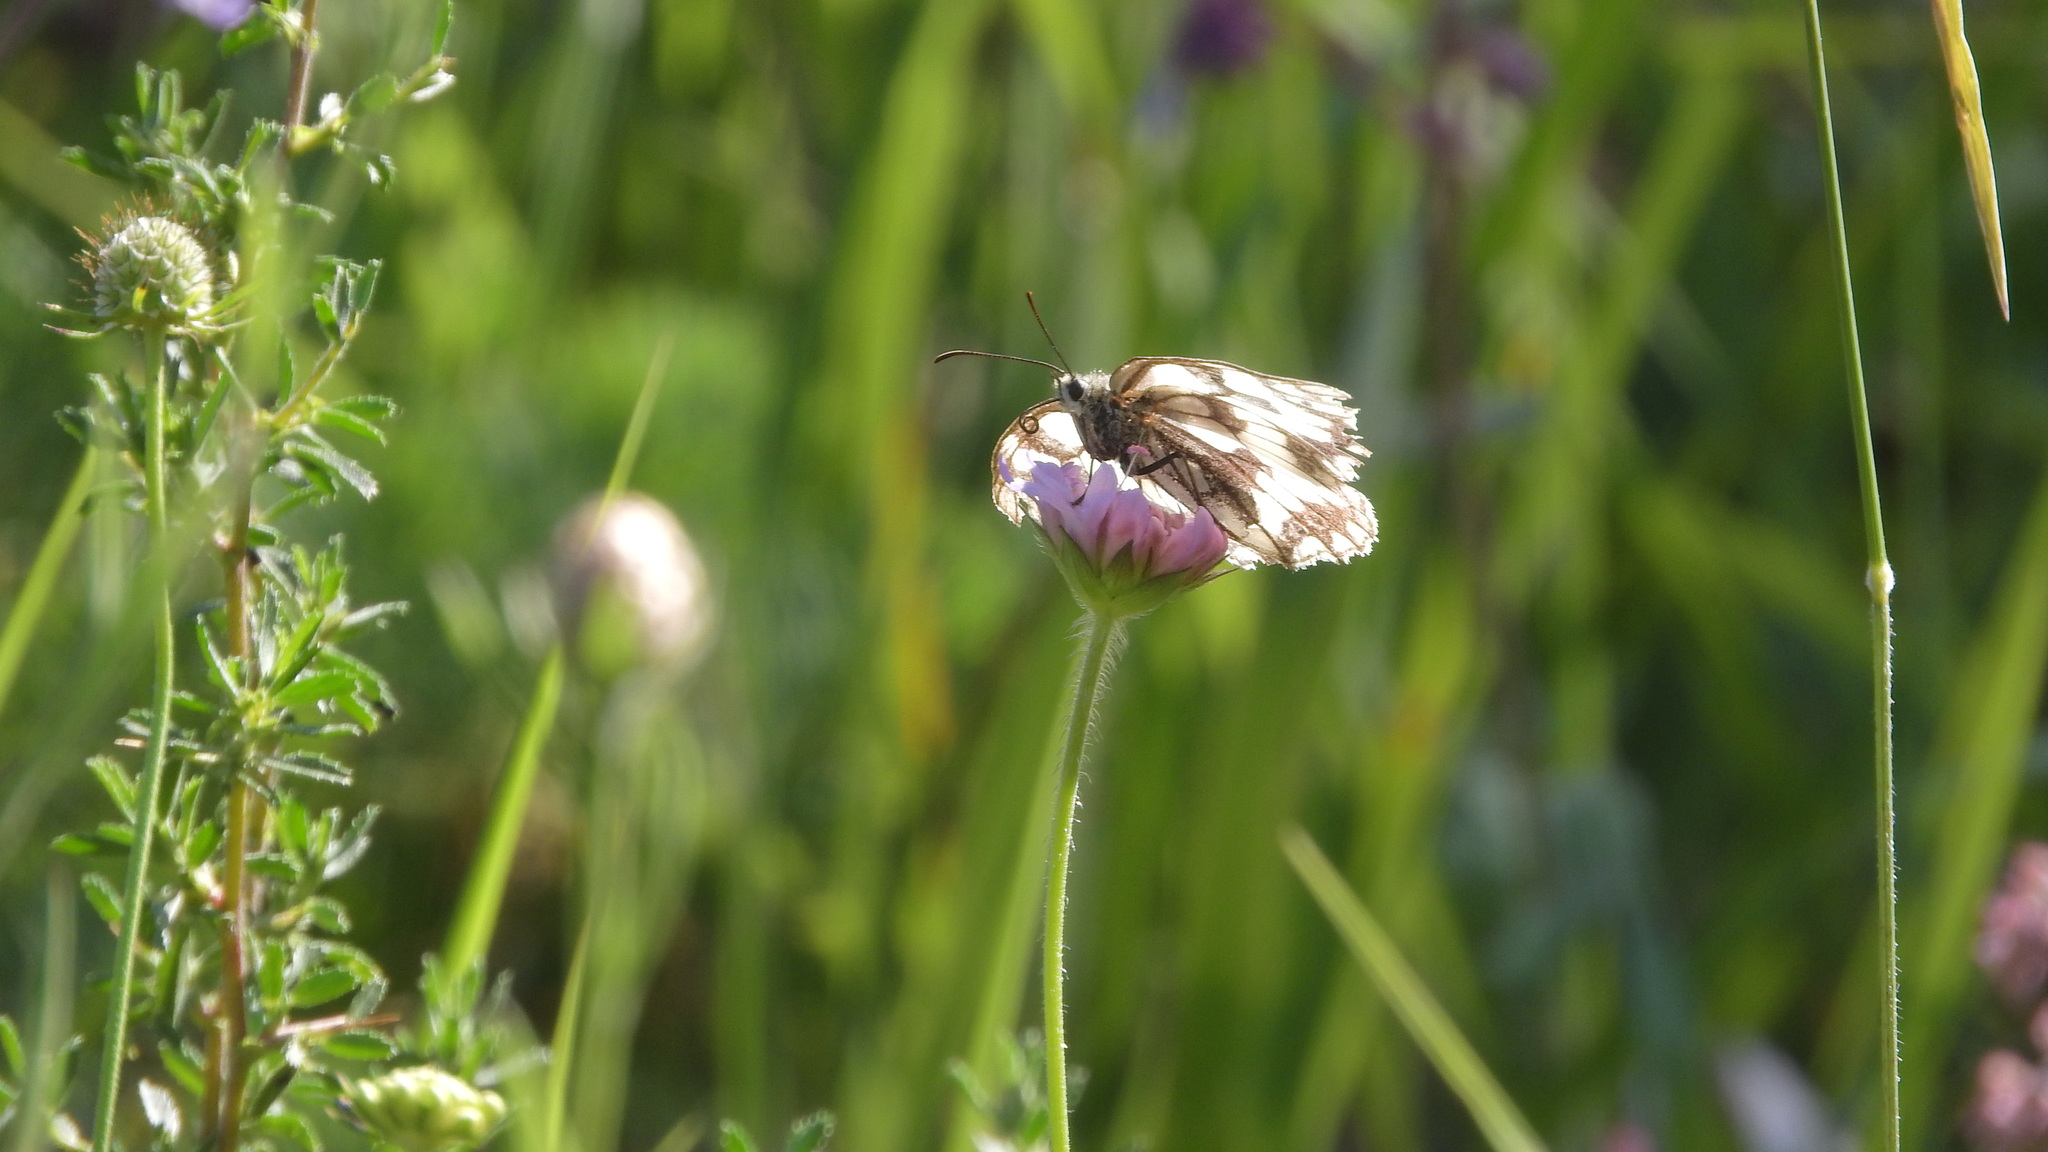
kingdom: Animalia
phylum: Arthropoda
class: Insecta
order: Lepidoptera
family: Nymphalidae
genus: Melanargia
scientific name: Melanargia galathea
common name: Marbled white
